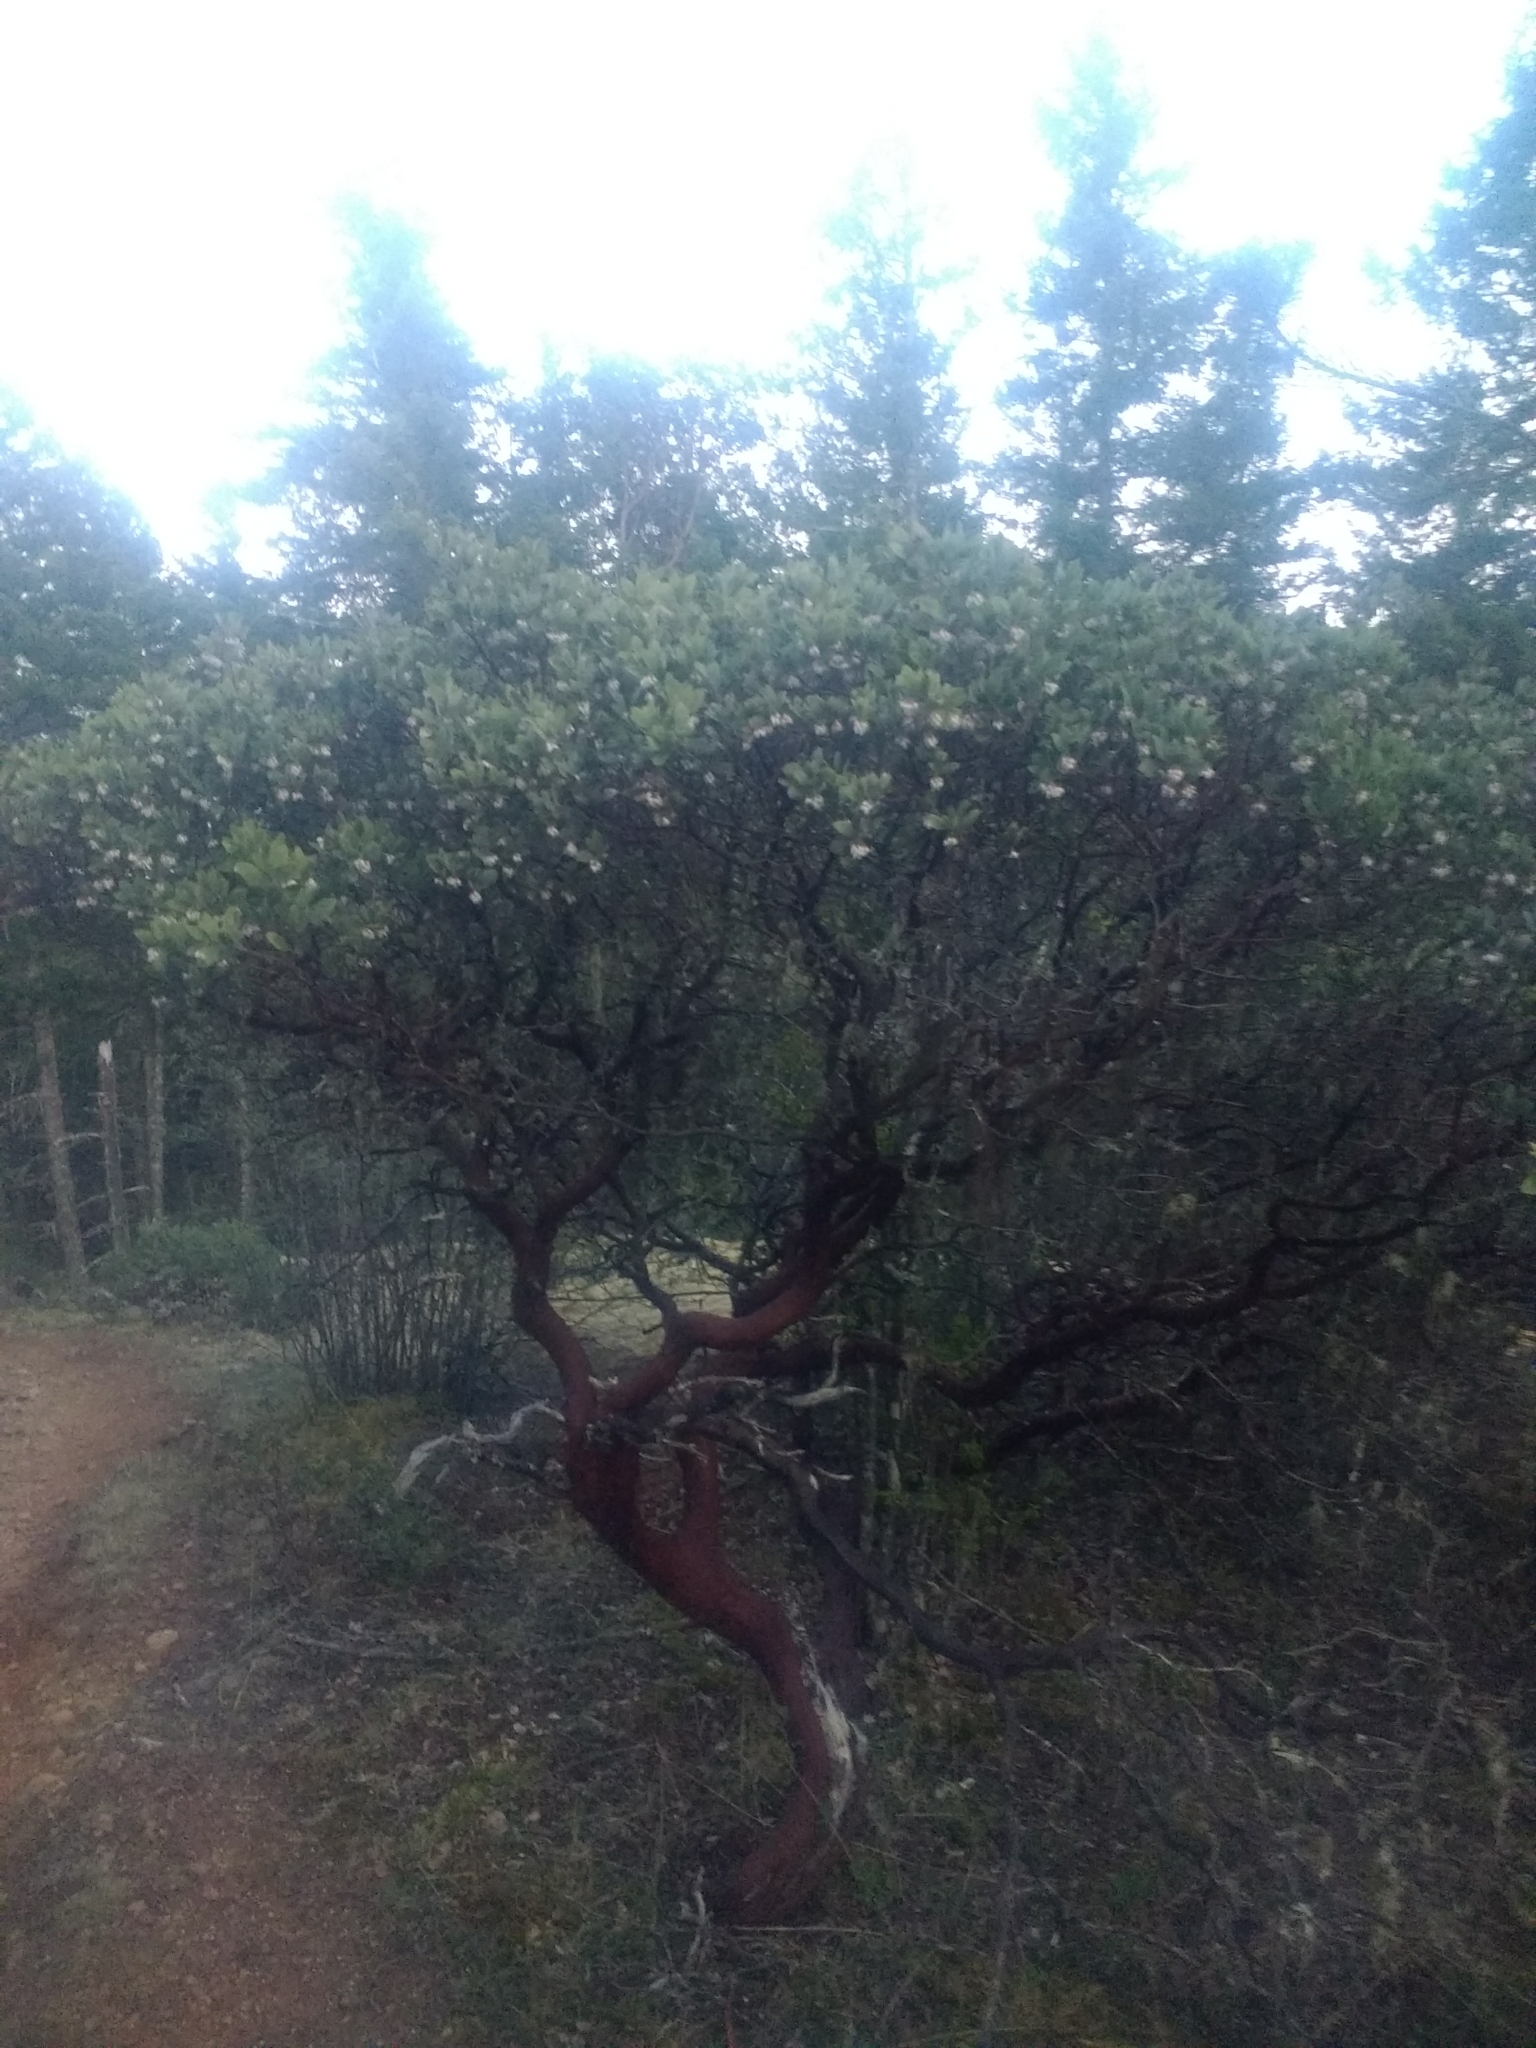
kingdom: Plantae
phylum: Tracheophyta
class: Magnoliopsida
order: Ericales
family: Ericaceae
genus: Arctostaphylos
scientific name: Arctostaphylos columbiana
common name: Bristly bearberry
